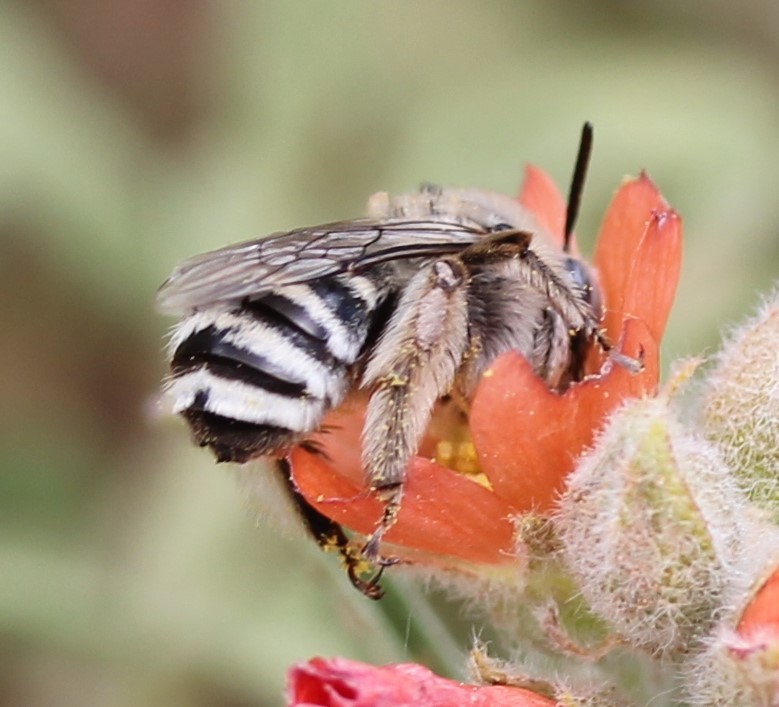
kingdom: Animalia
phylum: Arthropoda
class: Insecta
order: Hymenoptera
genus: Eumelissodes
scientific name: Eumelissodes
